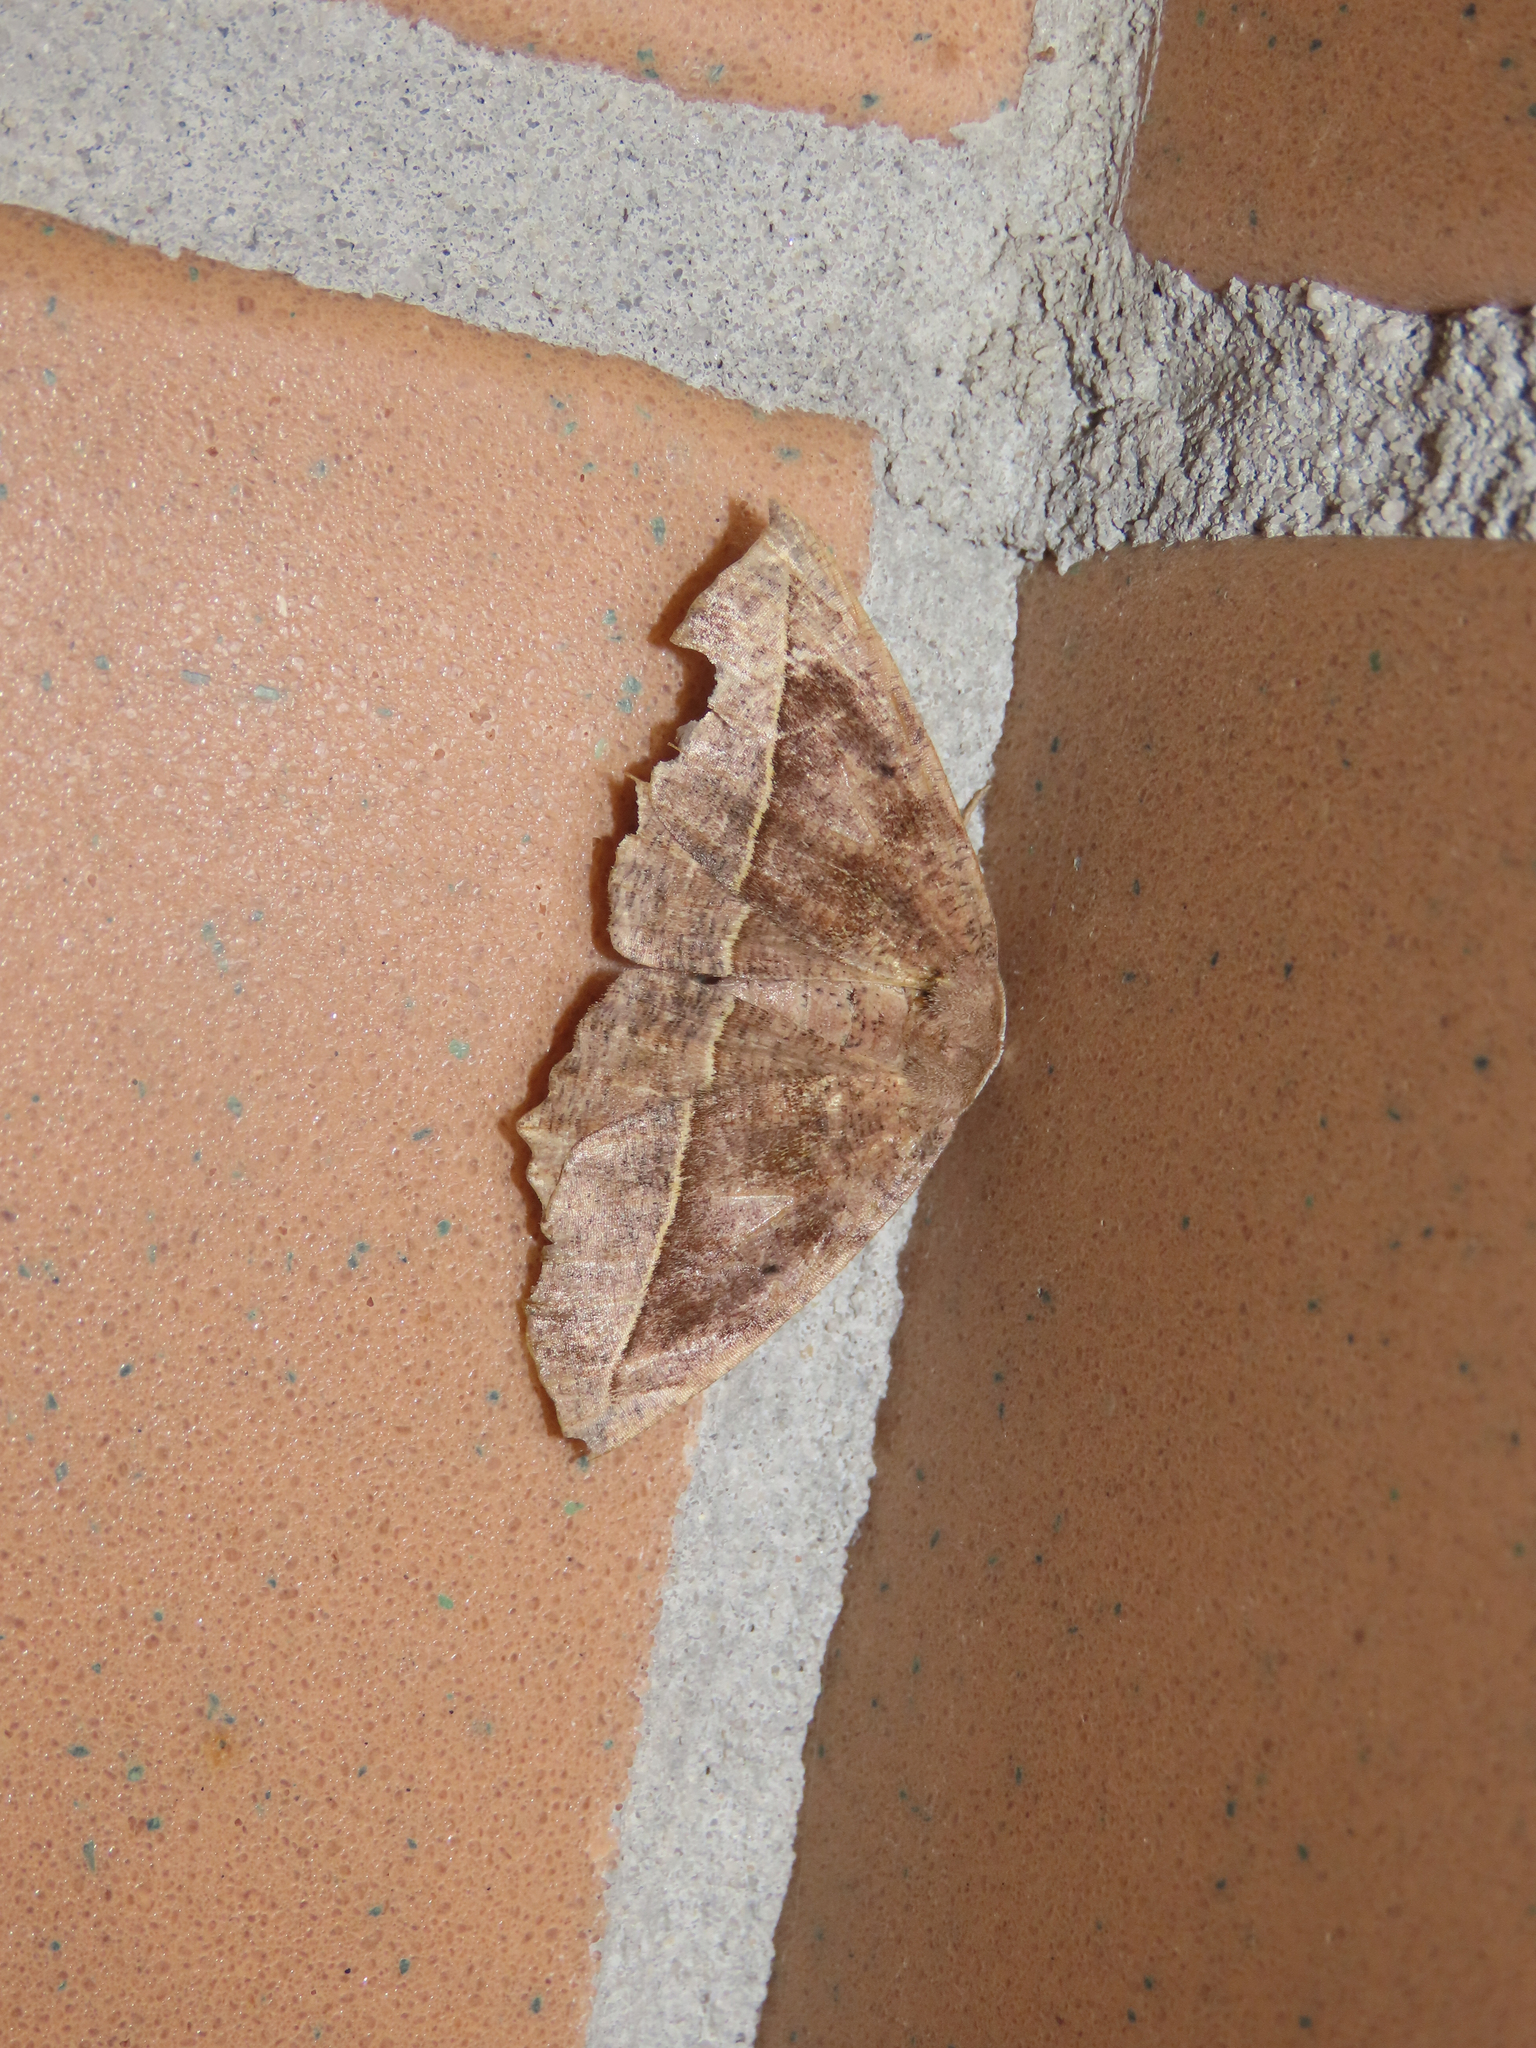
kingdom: Animalia
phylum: Arthropoda
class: Insecta
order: Lepidoptera
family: Geometridae
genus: Eutrapela
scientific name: Eutrapela clemataria
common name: Curved-toothed geometer
